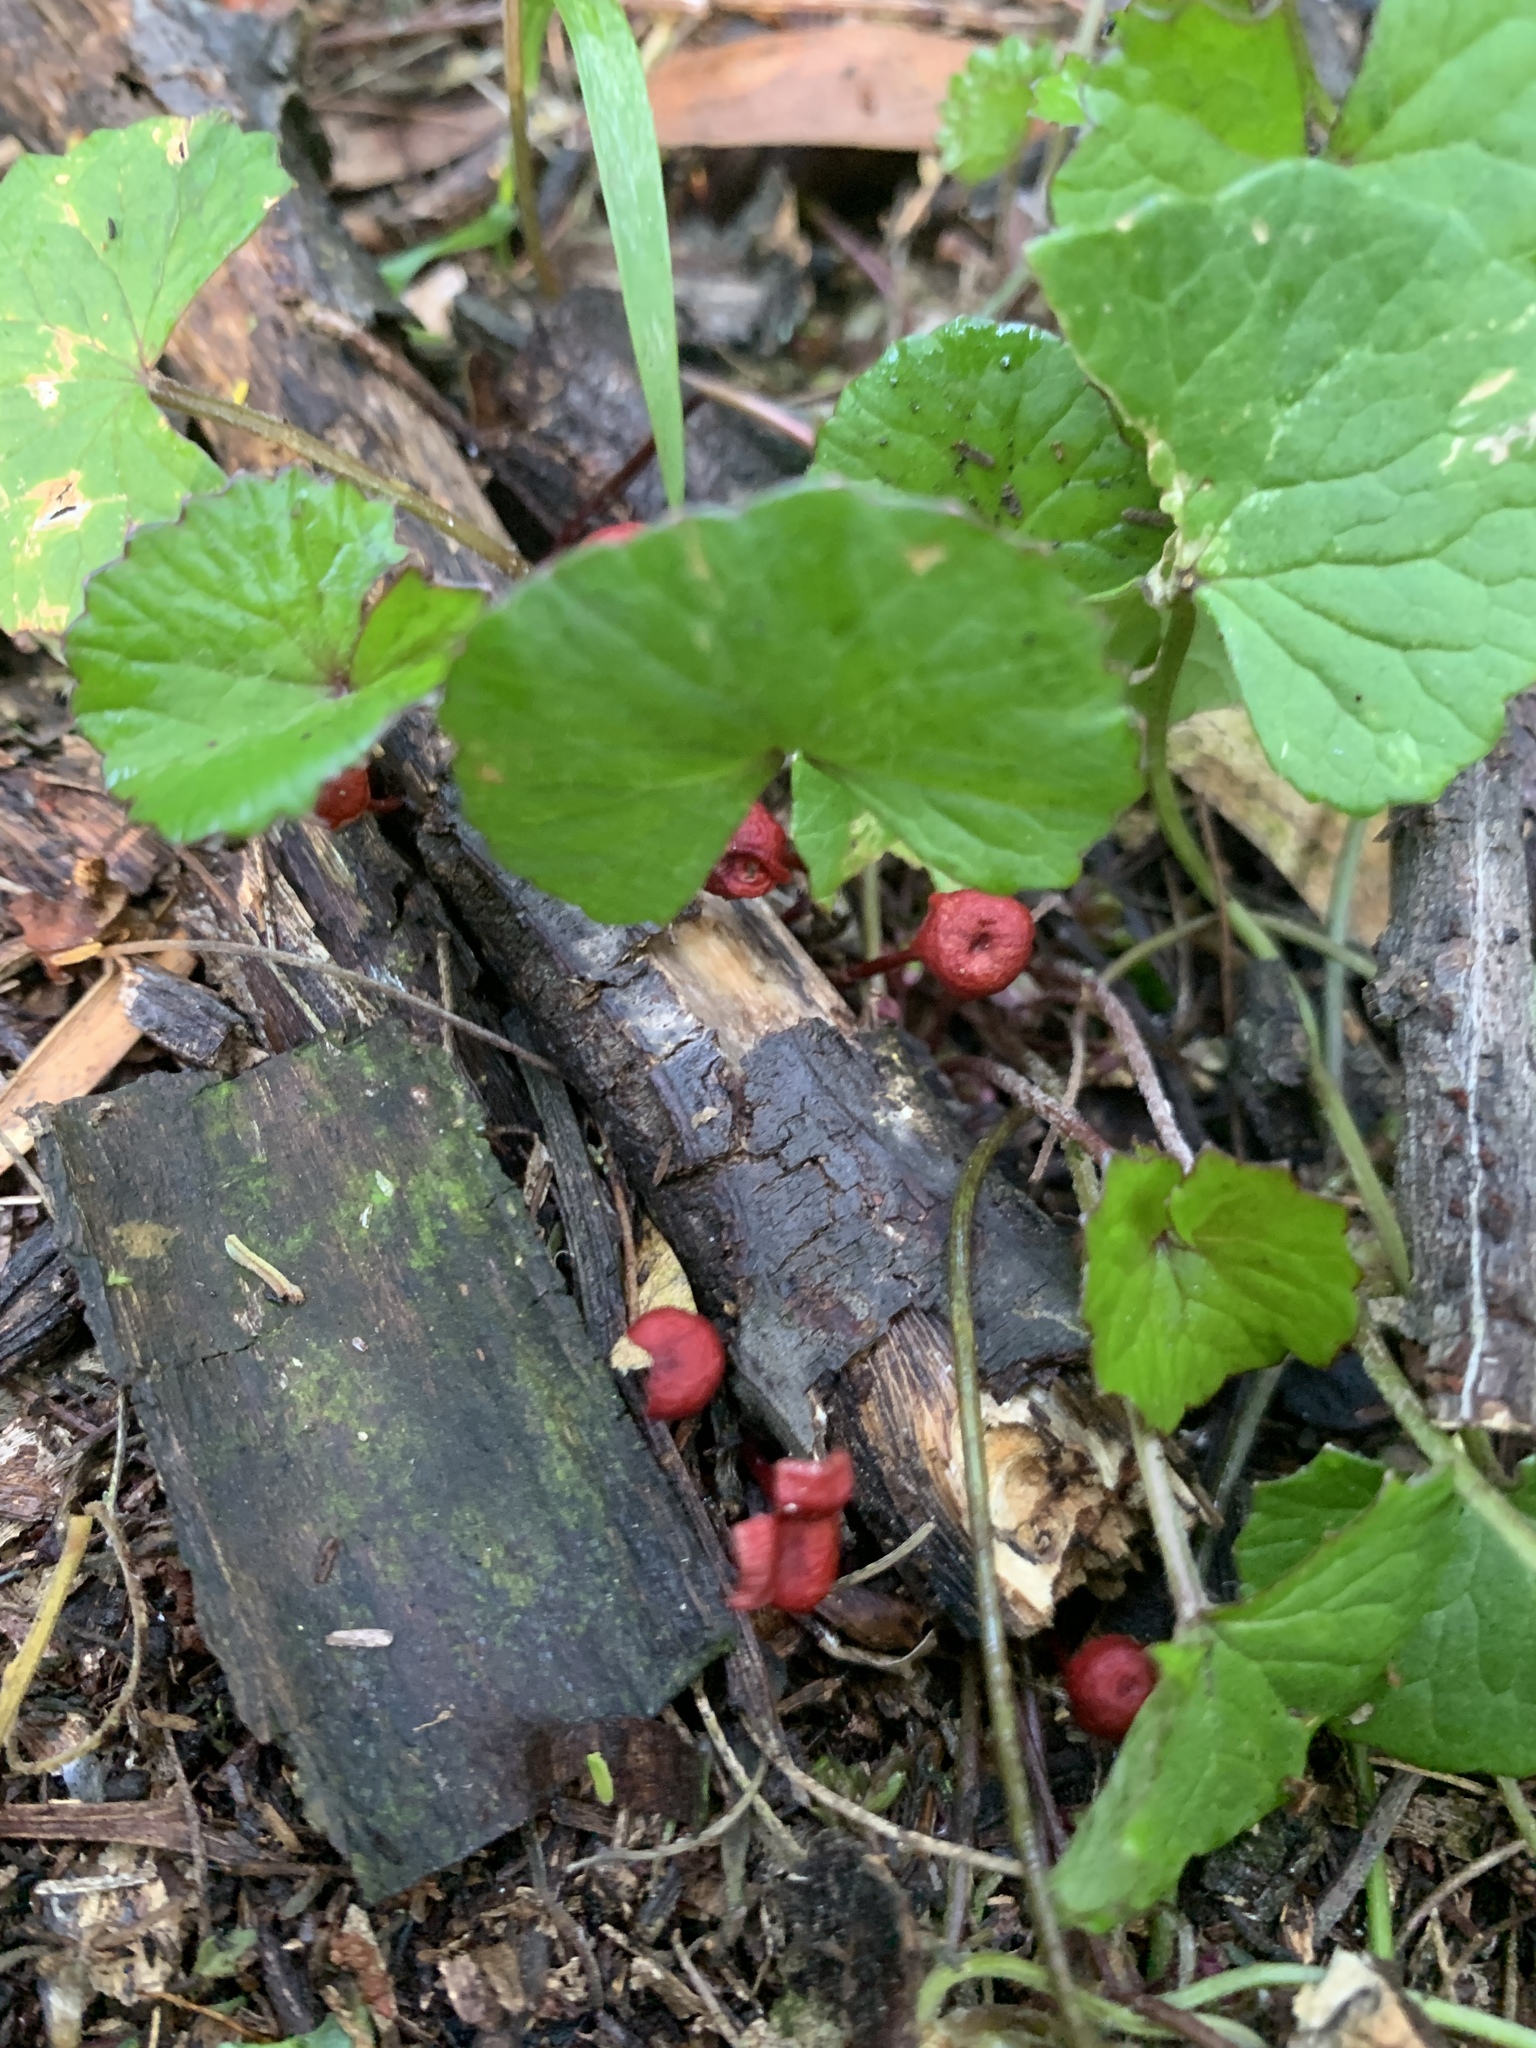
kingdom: Fungi
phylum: Basidiomycota
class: Agaricomycetes
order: Agaricales
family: Mycenaceae
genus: Cruentomycena
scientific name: Cruentomycena viscidocruenta
